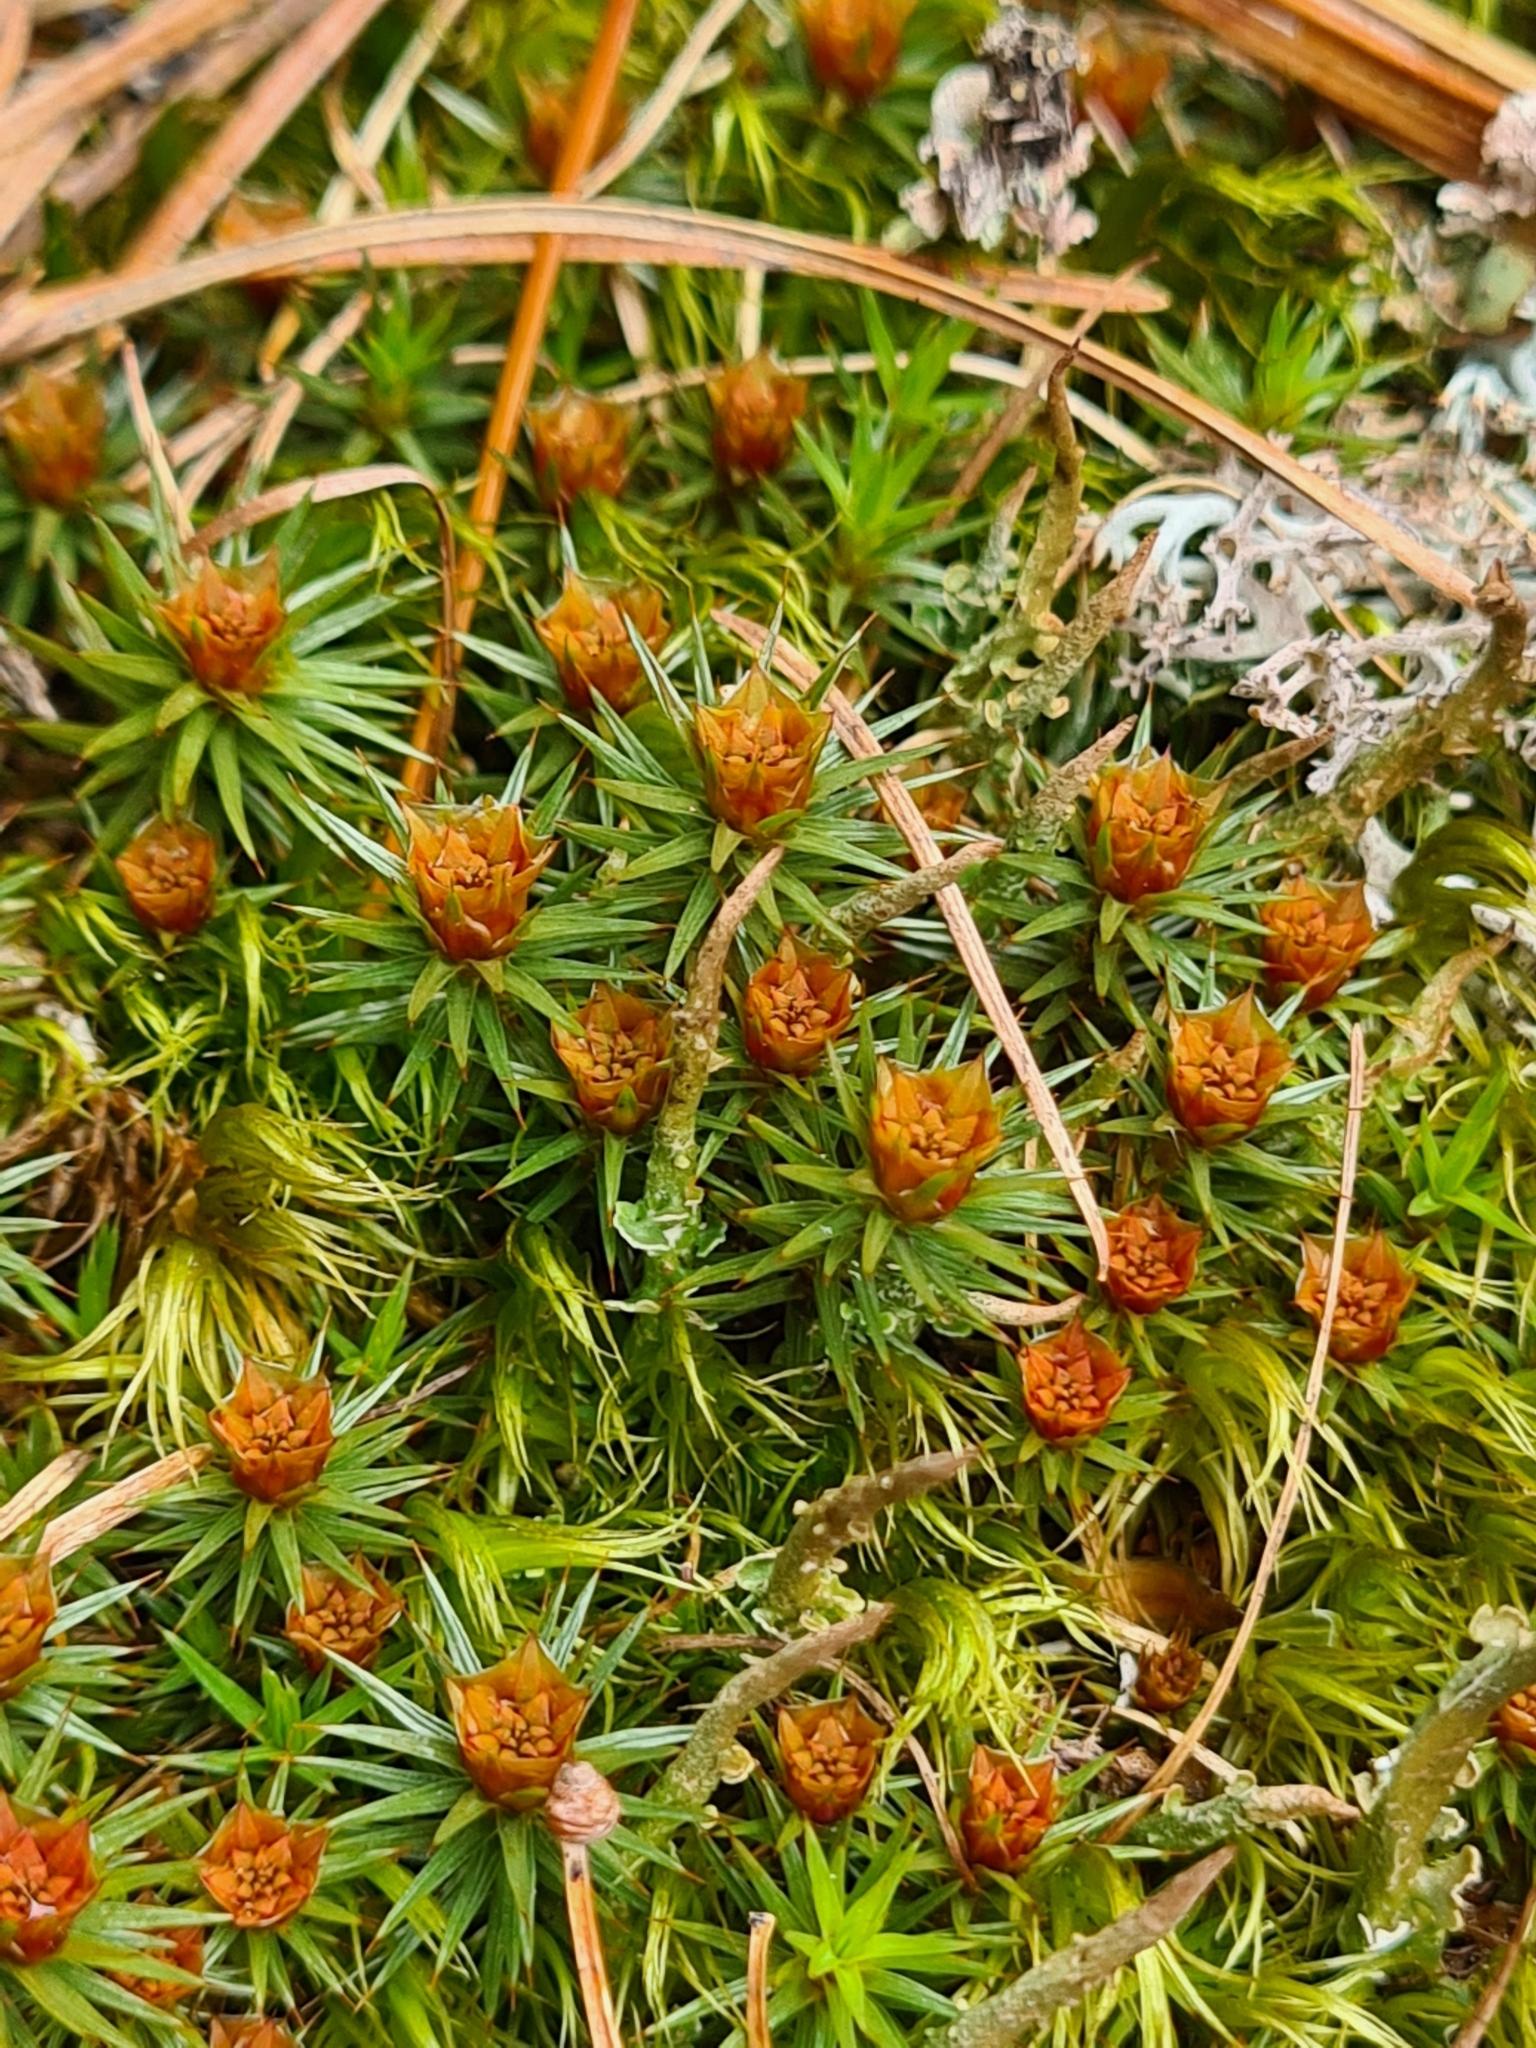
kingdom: Plantae
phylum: Bryophyta
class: Polytrichopsida
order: Polytrichales
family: Polytrichaceae
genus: Polytrichum
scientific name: Polytrichum juniperinum
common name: Juniper haircap moss
